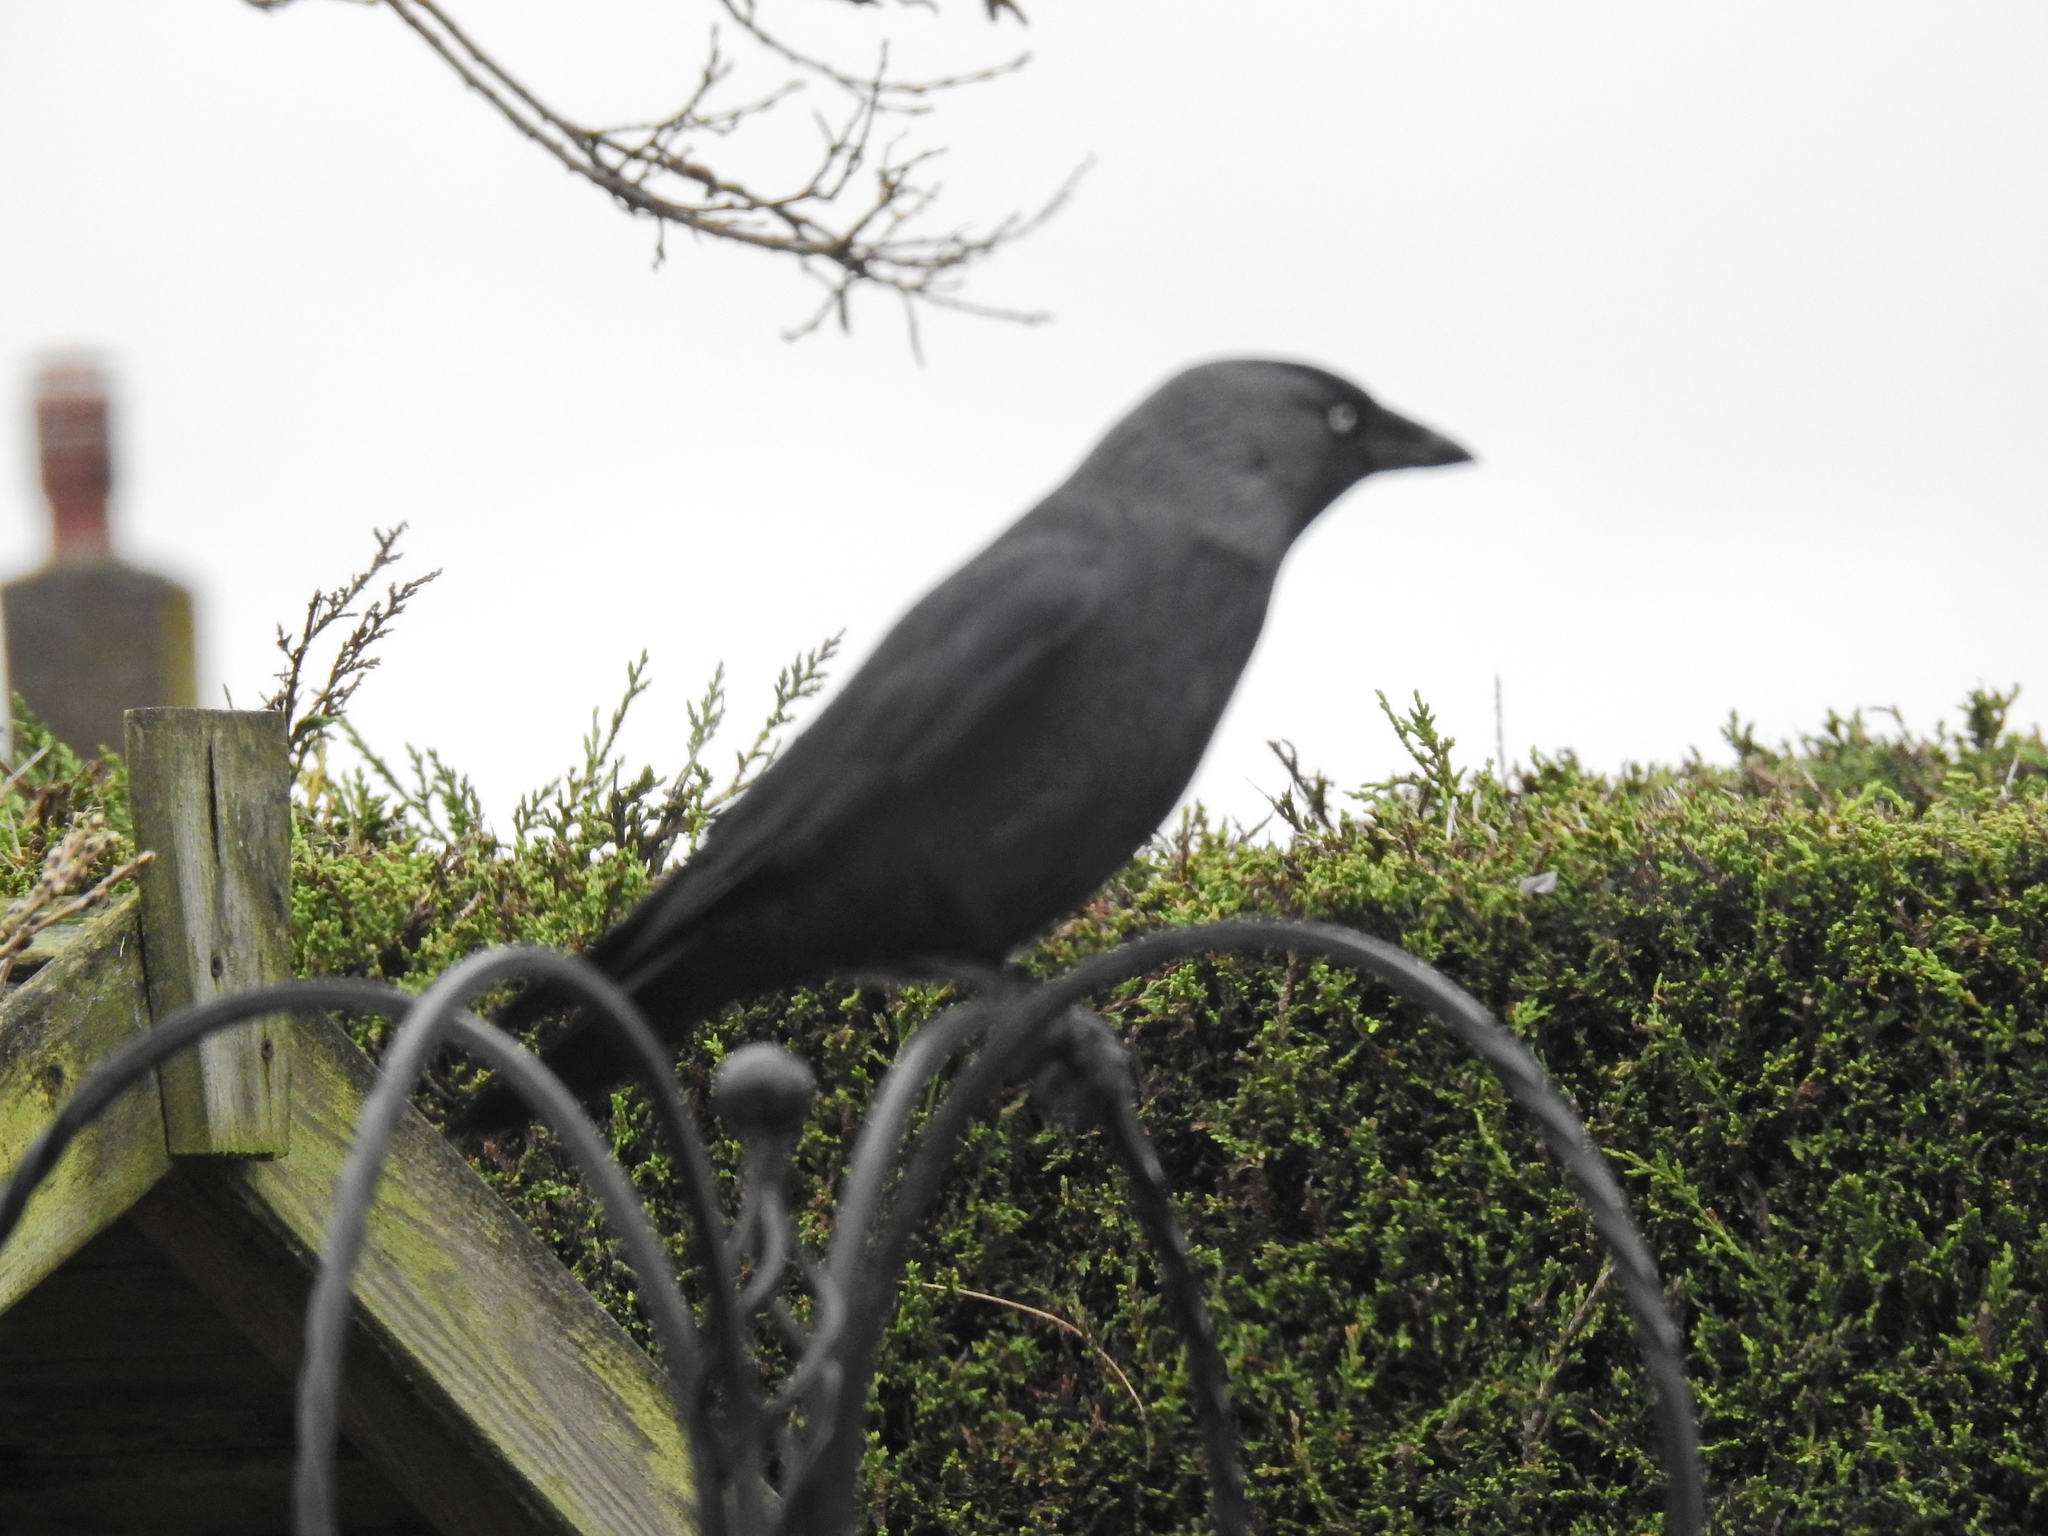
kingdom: Animalia
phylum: Chordata
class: Aves
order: Passeriformes
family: Corvidae
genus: Coloeus
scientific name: Coloeus monedula
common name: Western jackdaw
